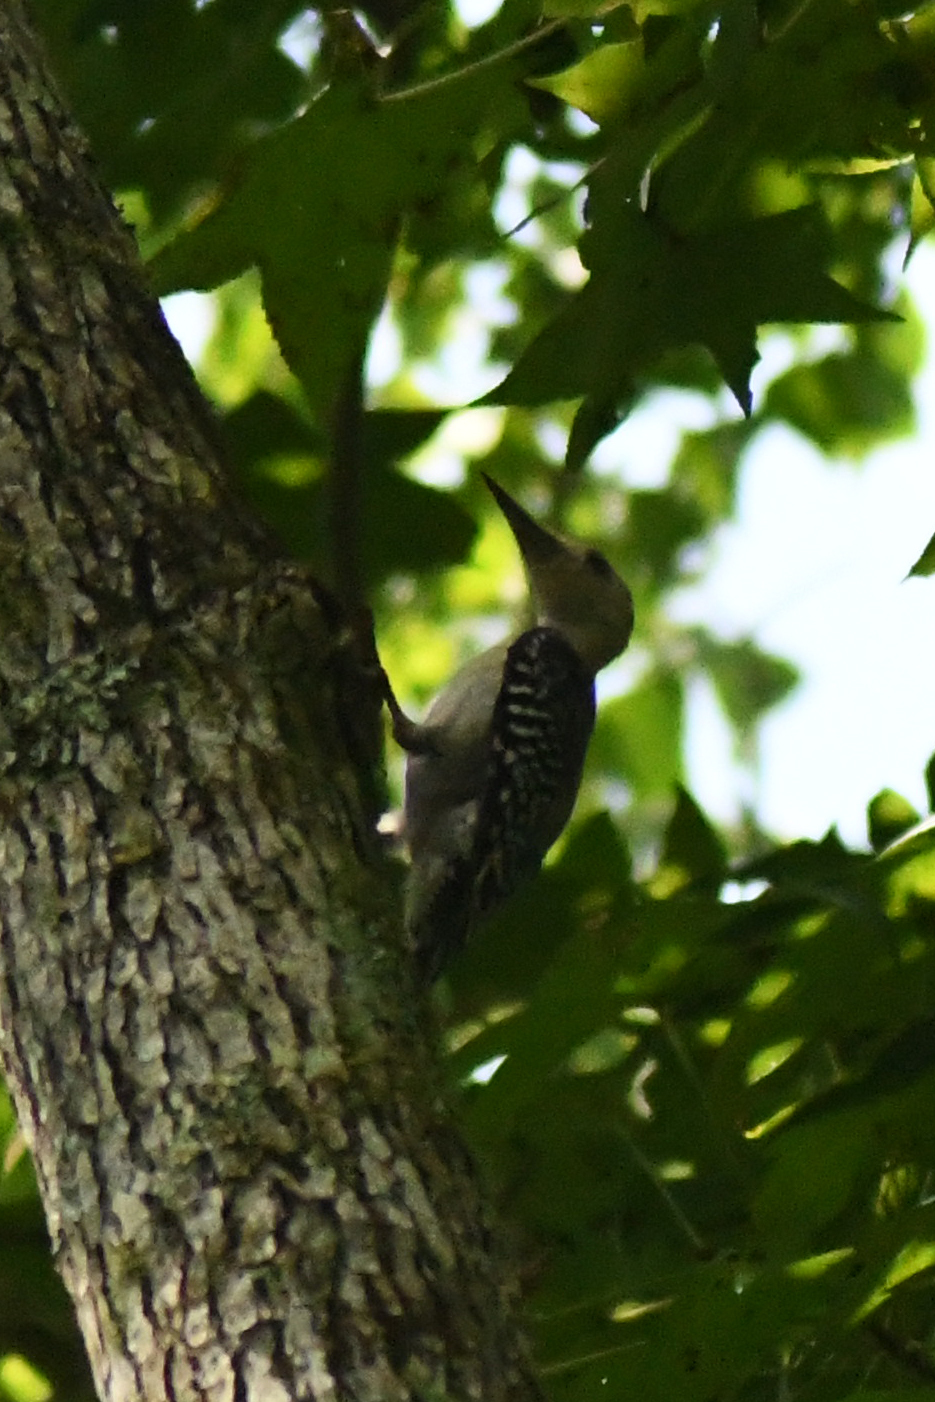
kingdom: Animalia
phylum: Chordata
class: Aves
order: Piciformes
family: Picidae
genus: Melanerpes
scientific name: Melanerpes carolinus
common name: Red-bellied woodpecker
